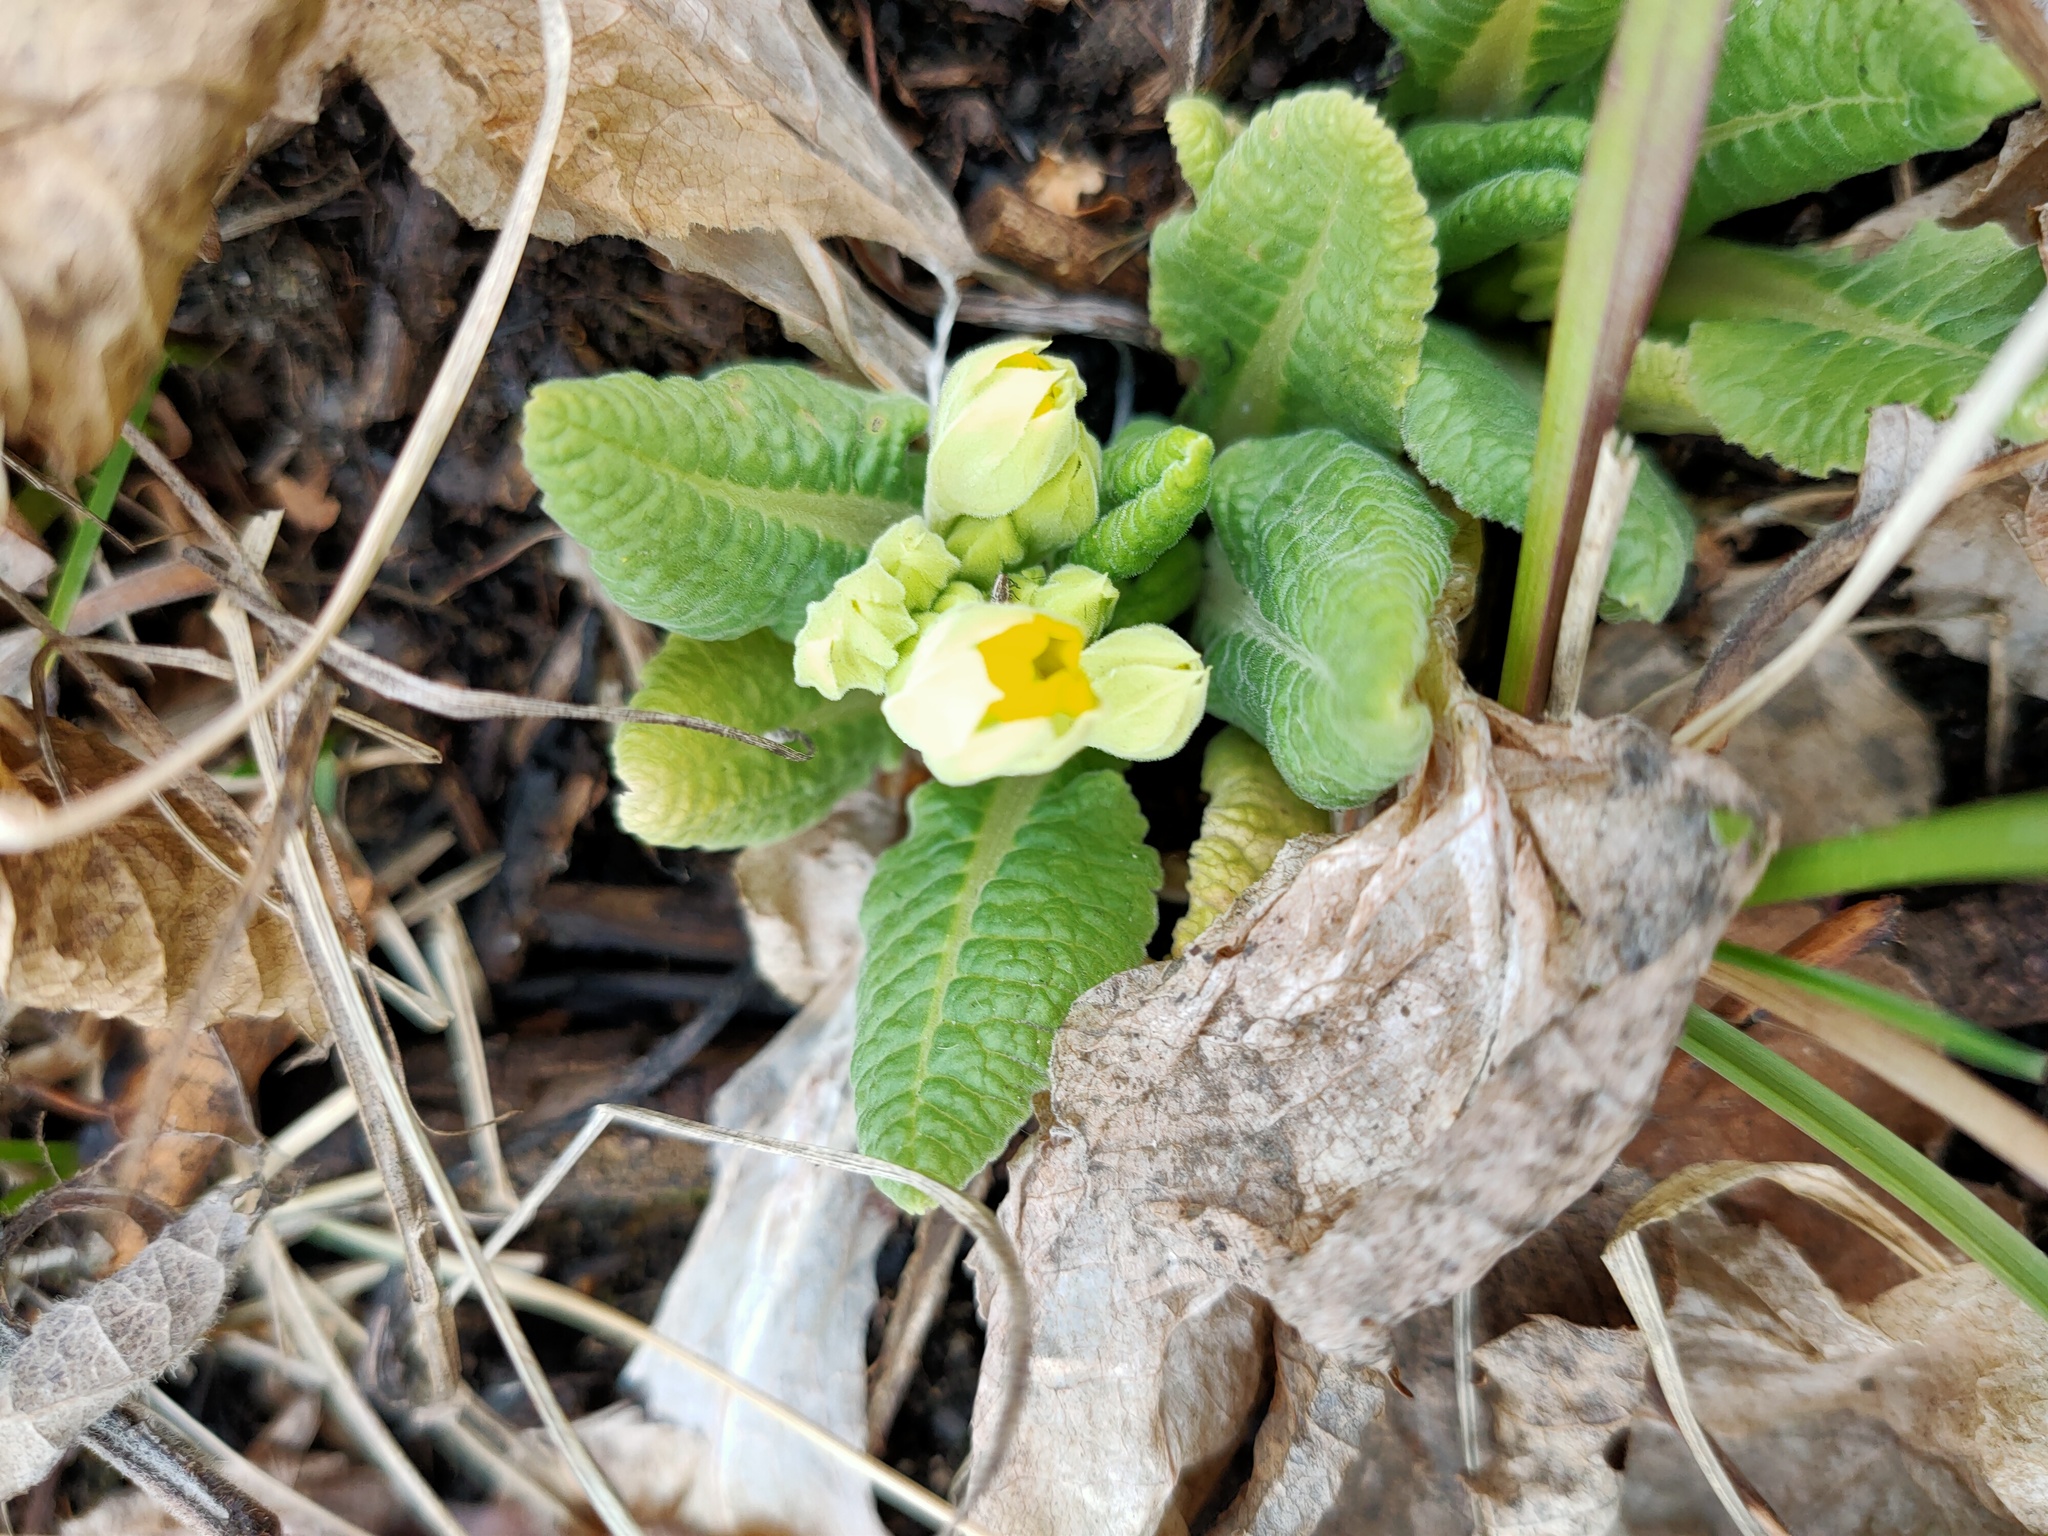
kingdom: Plantae
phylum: Tracheophyta
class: Magnoliopsida
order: Ericales
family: Primulaceae
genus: Primula
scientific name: Primula veris
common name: Cowslip
